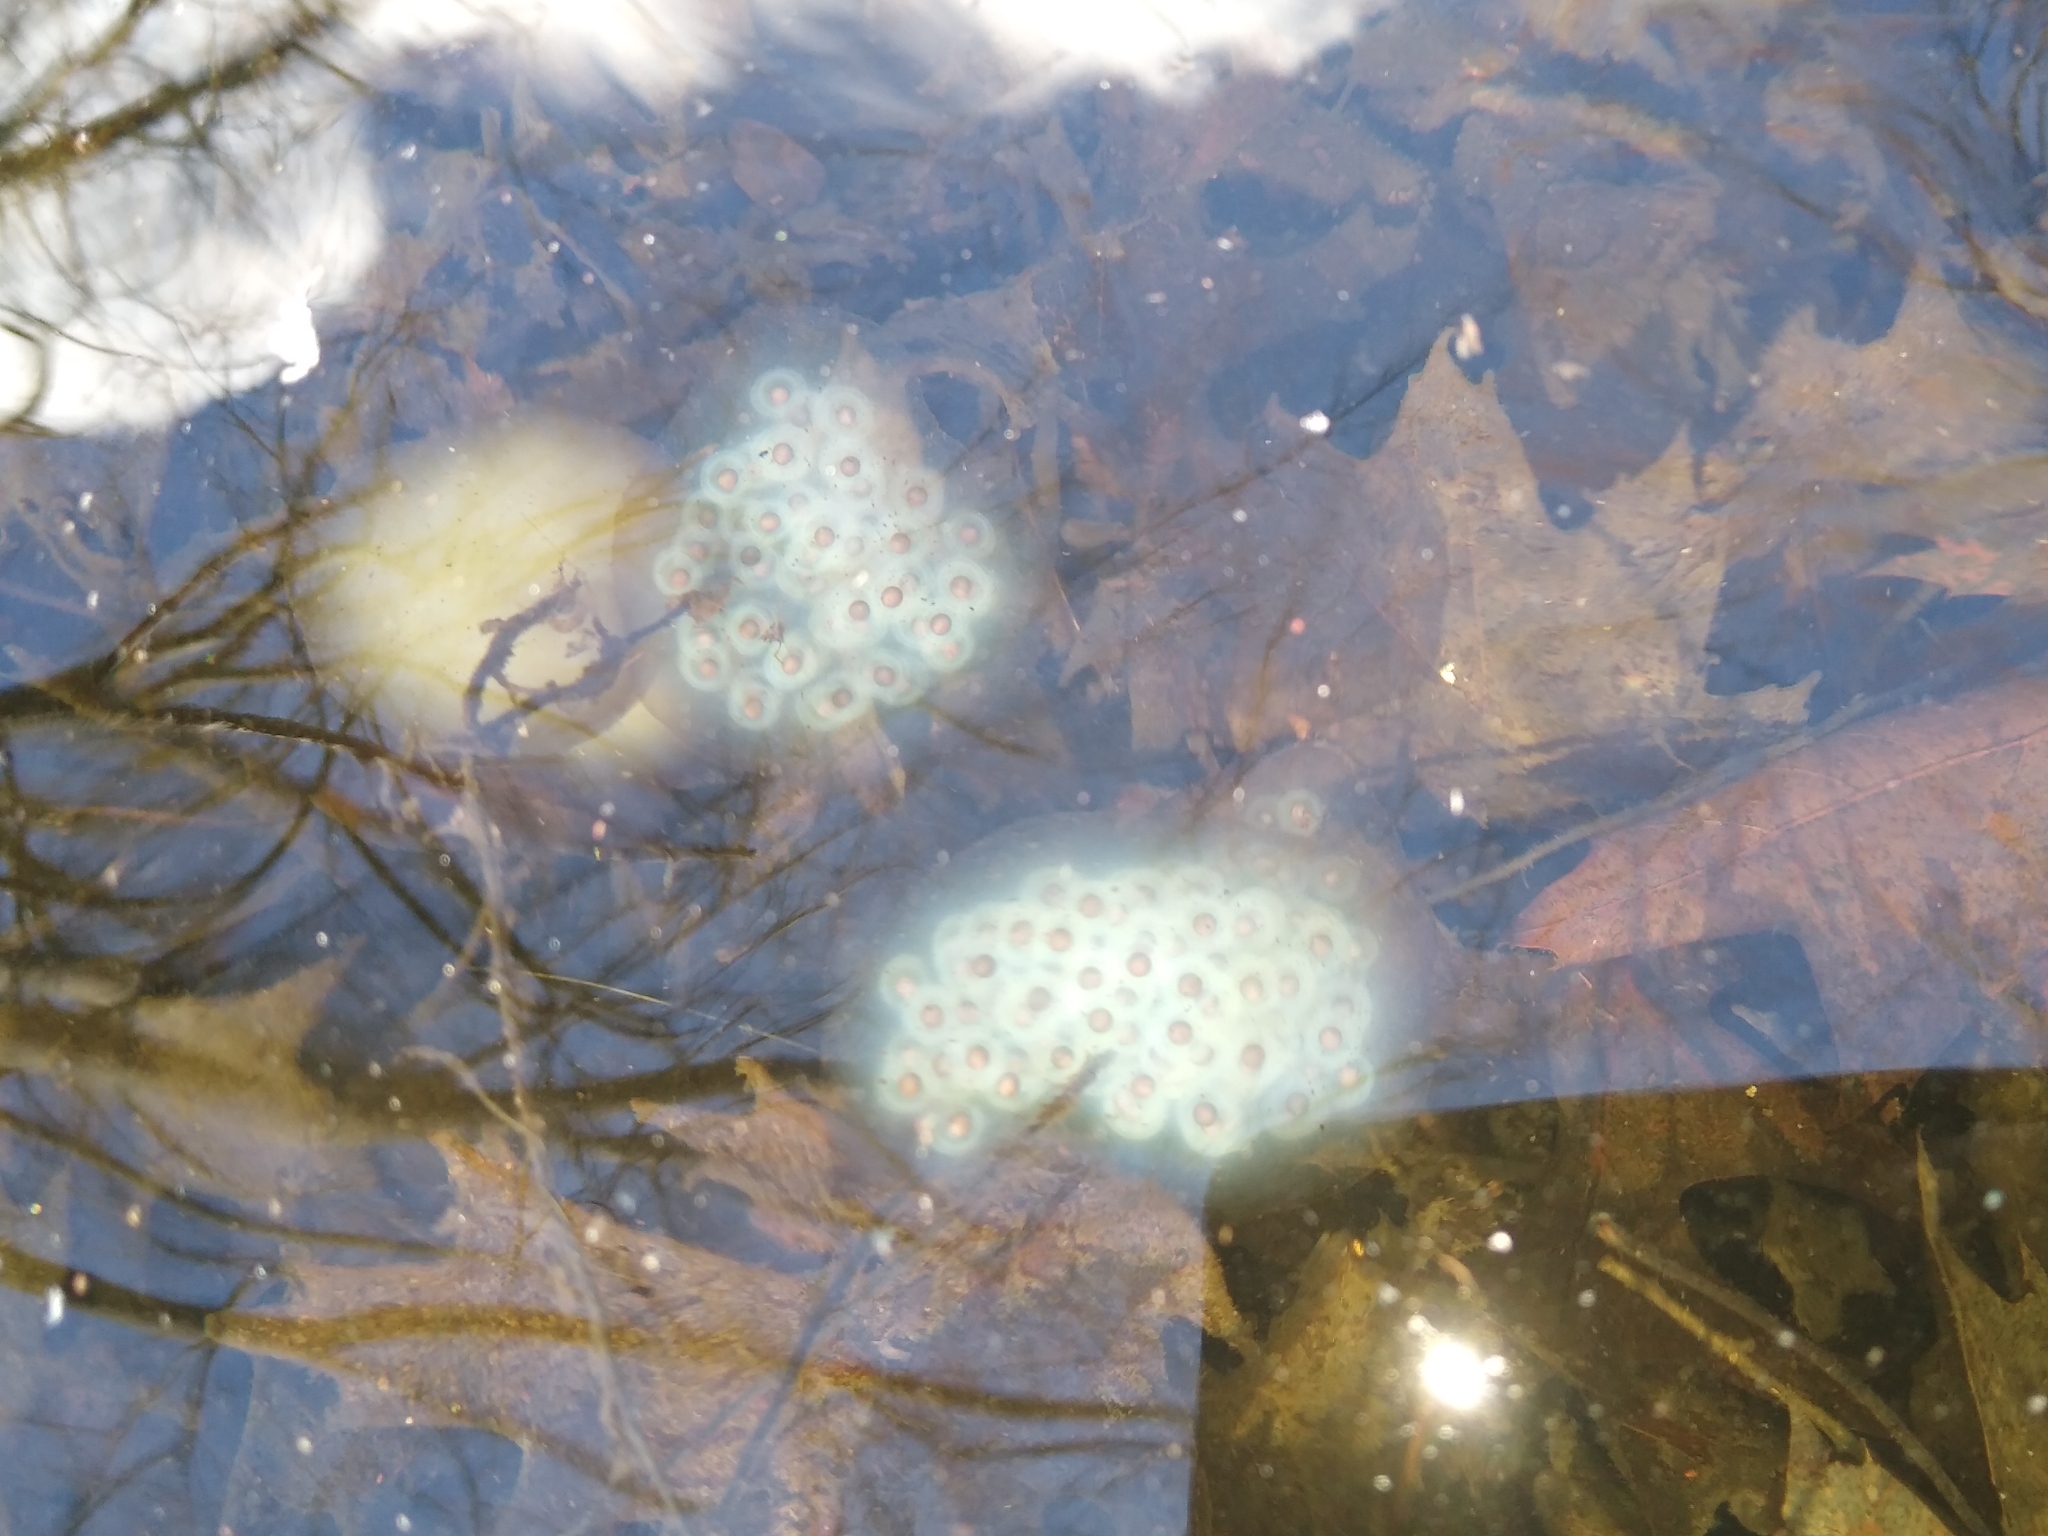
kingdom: Animalia
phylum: Chordata
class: Amphibia
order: Caudata
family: Ambystomatidae
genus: Ambystoma
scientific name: Ambystoma maculatum
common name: Spotted salamander
